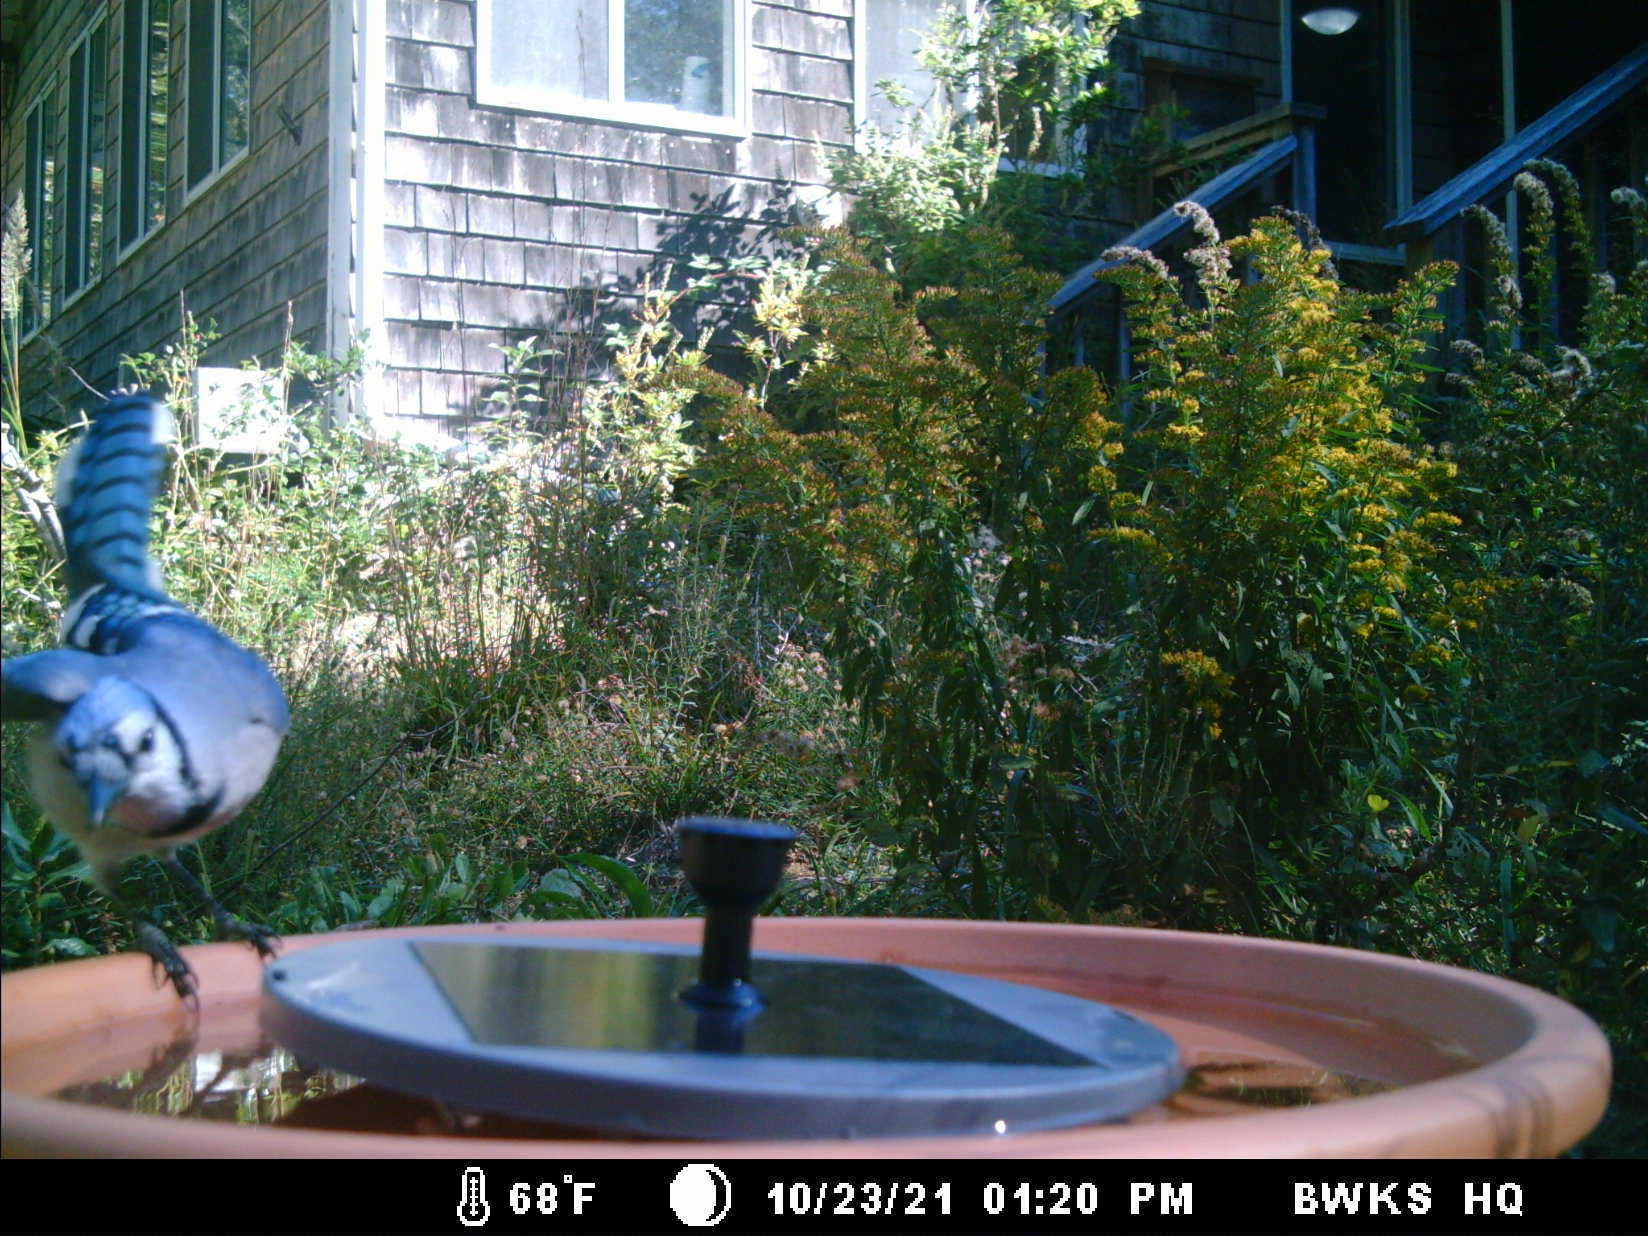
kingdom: Animalia
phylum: Chordata
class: Aves
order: Passeriformes
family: Corvidae
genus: Cyanocitta
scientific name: Cyanocitta cristata
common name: Blue jay
